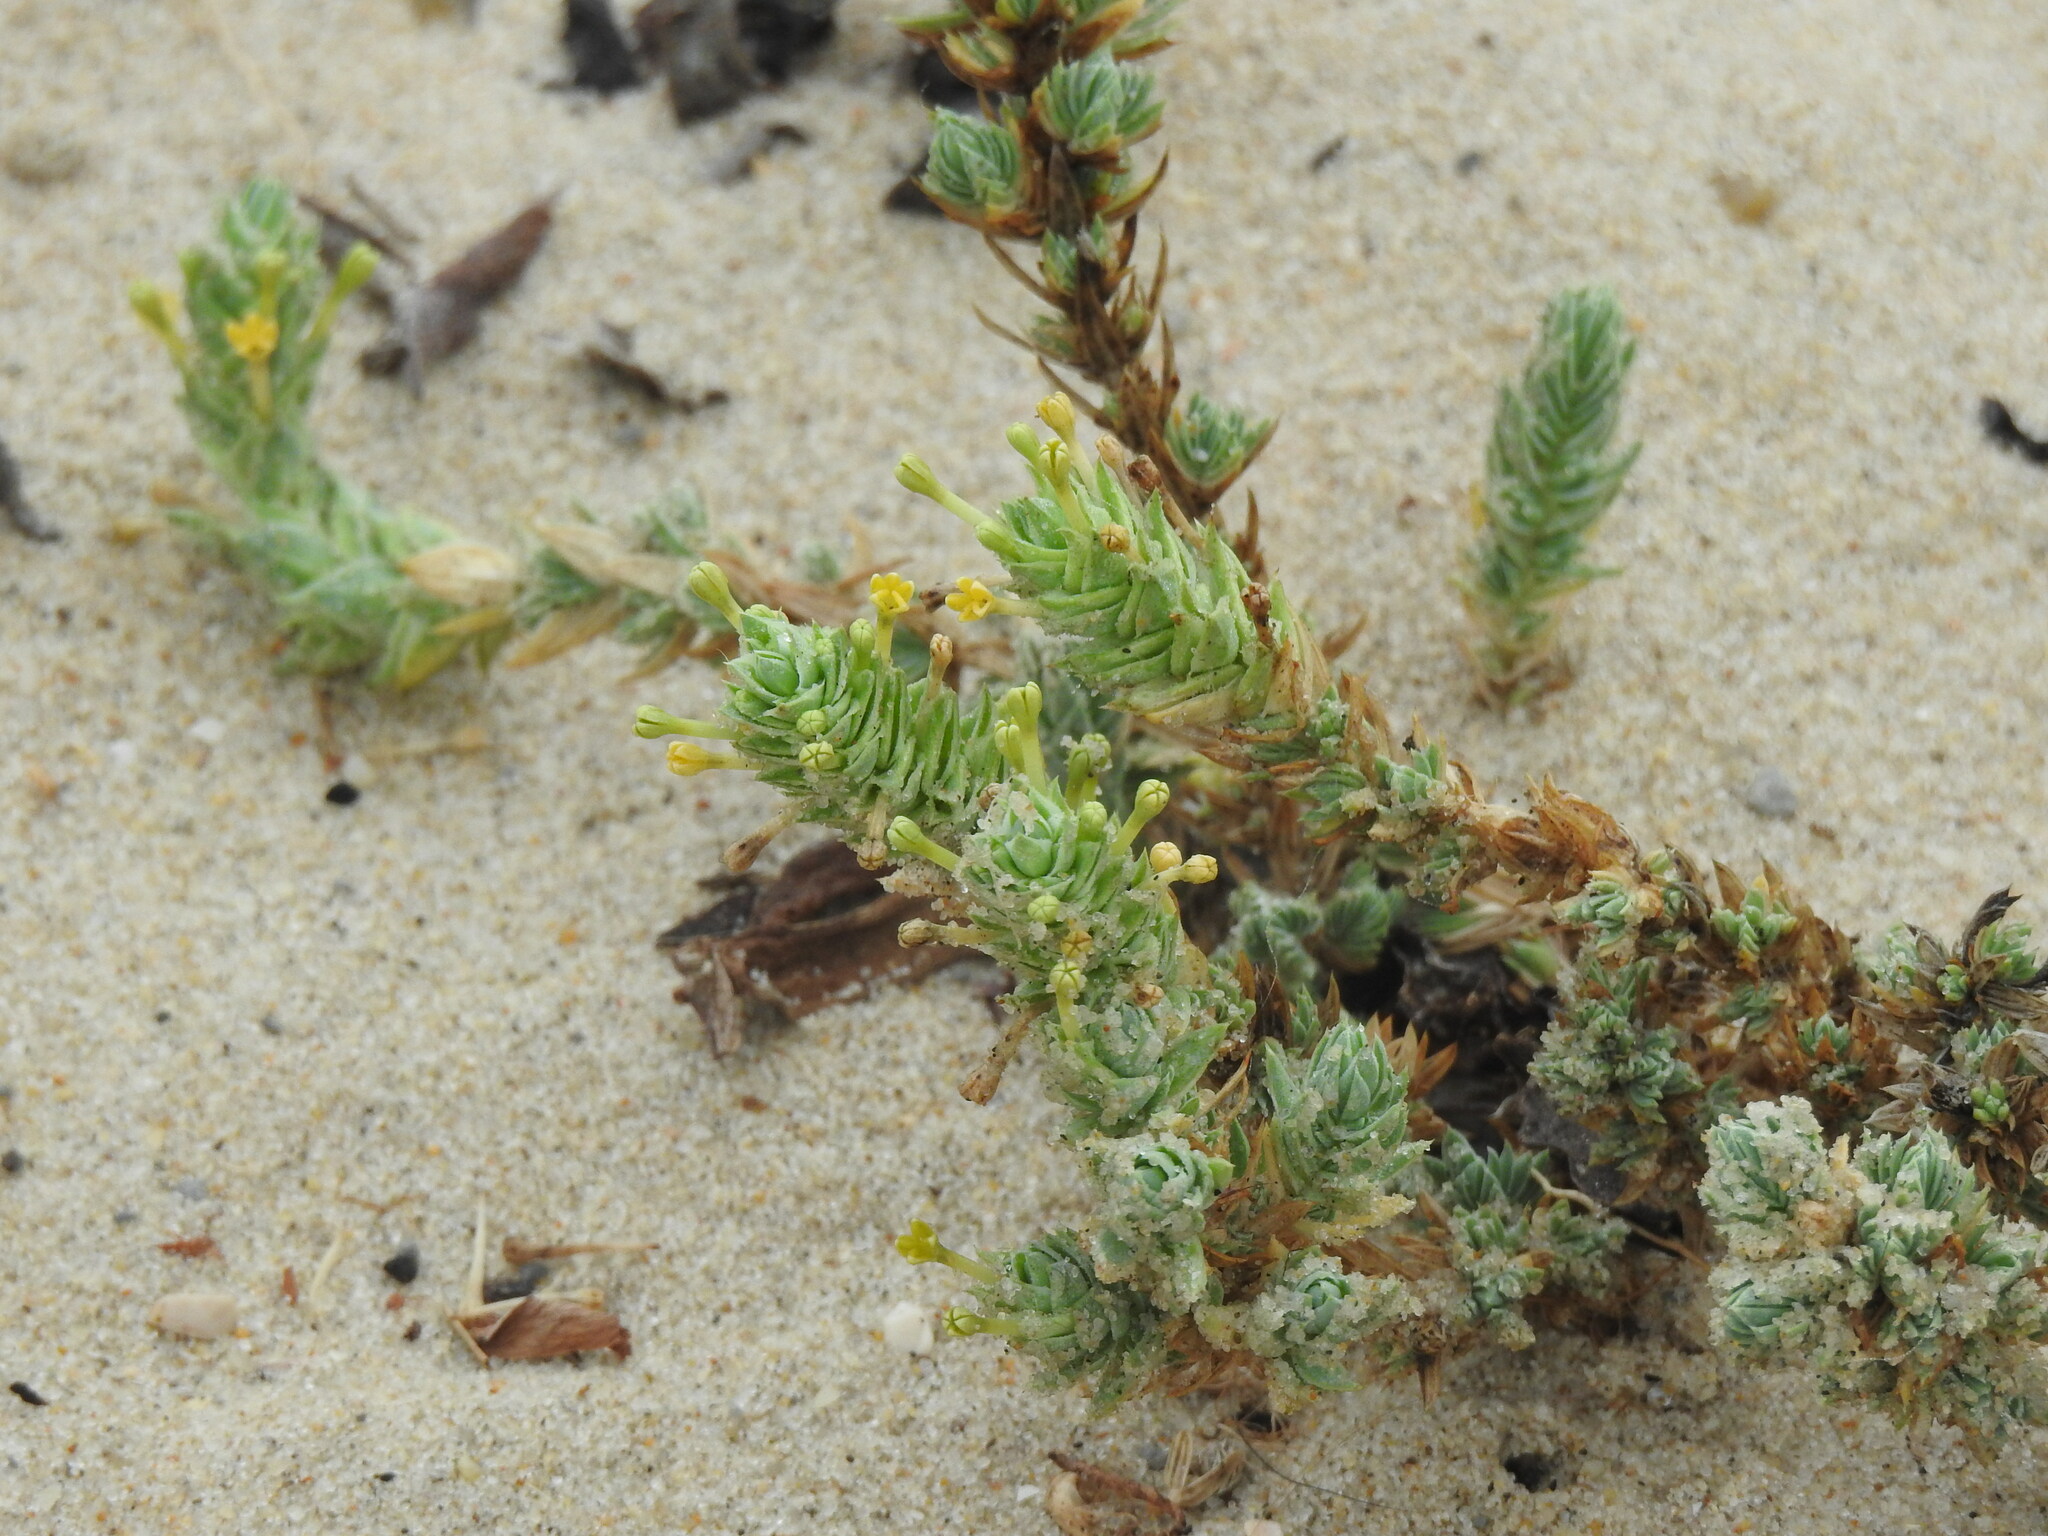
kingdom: Plantae
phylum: Tracheophyta
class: Magnoliopsida
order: Gentianales
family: Rubiaceae
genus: Crucianella
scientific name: Crucianella maritima
